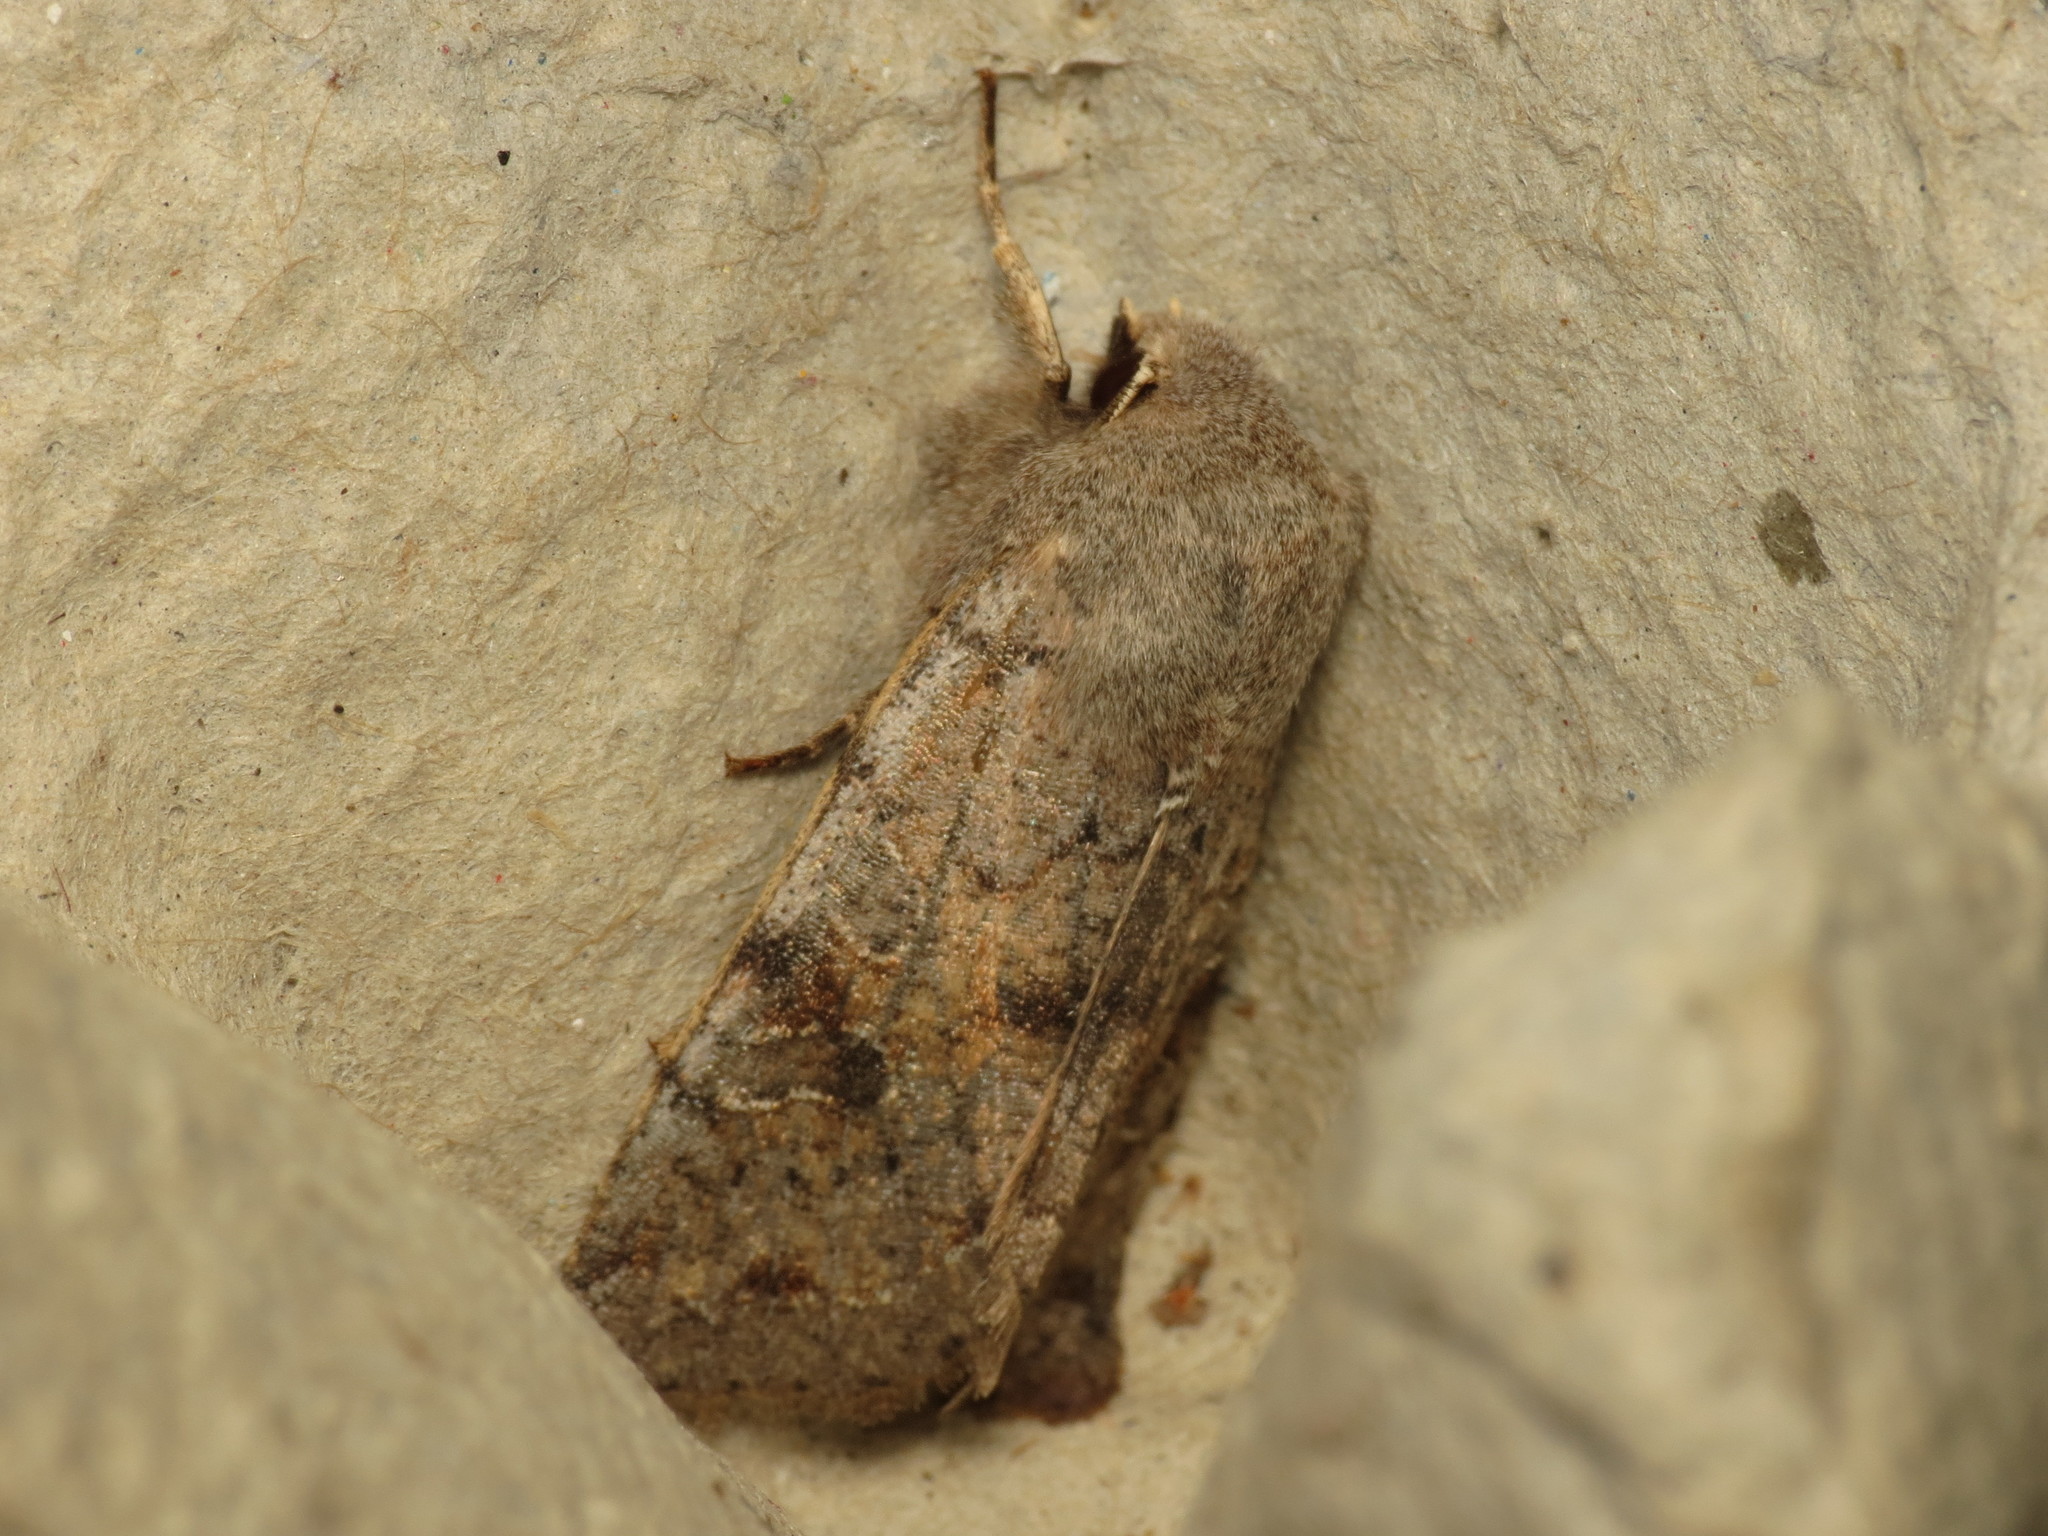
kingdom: Animalia
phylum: Arthropoda
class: Insecta
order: Lepidoptera
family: Noctuidae
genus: Orthosia
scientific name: Orthosia incerta
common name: Clouded drab
